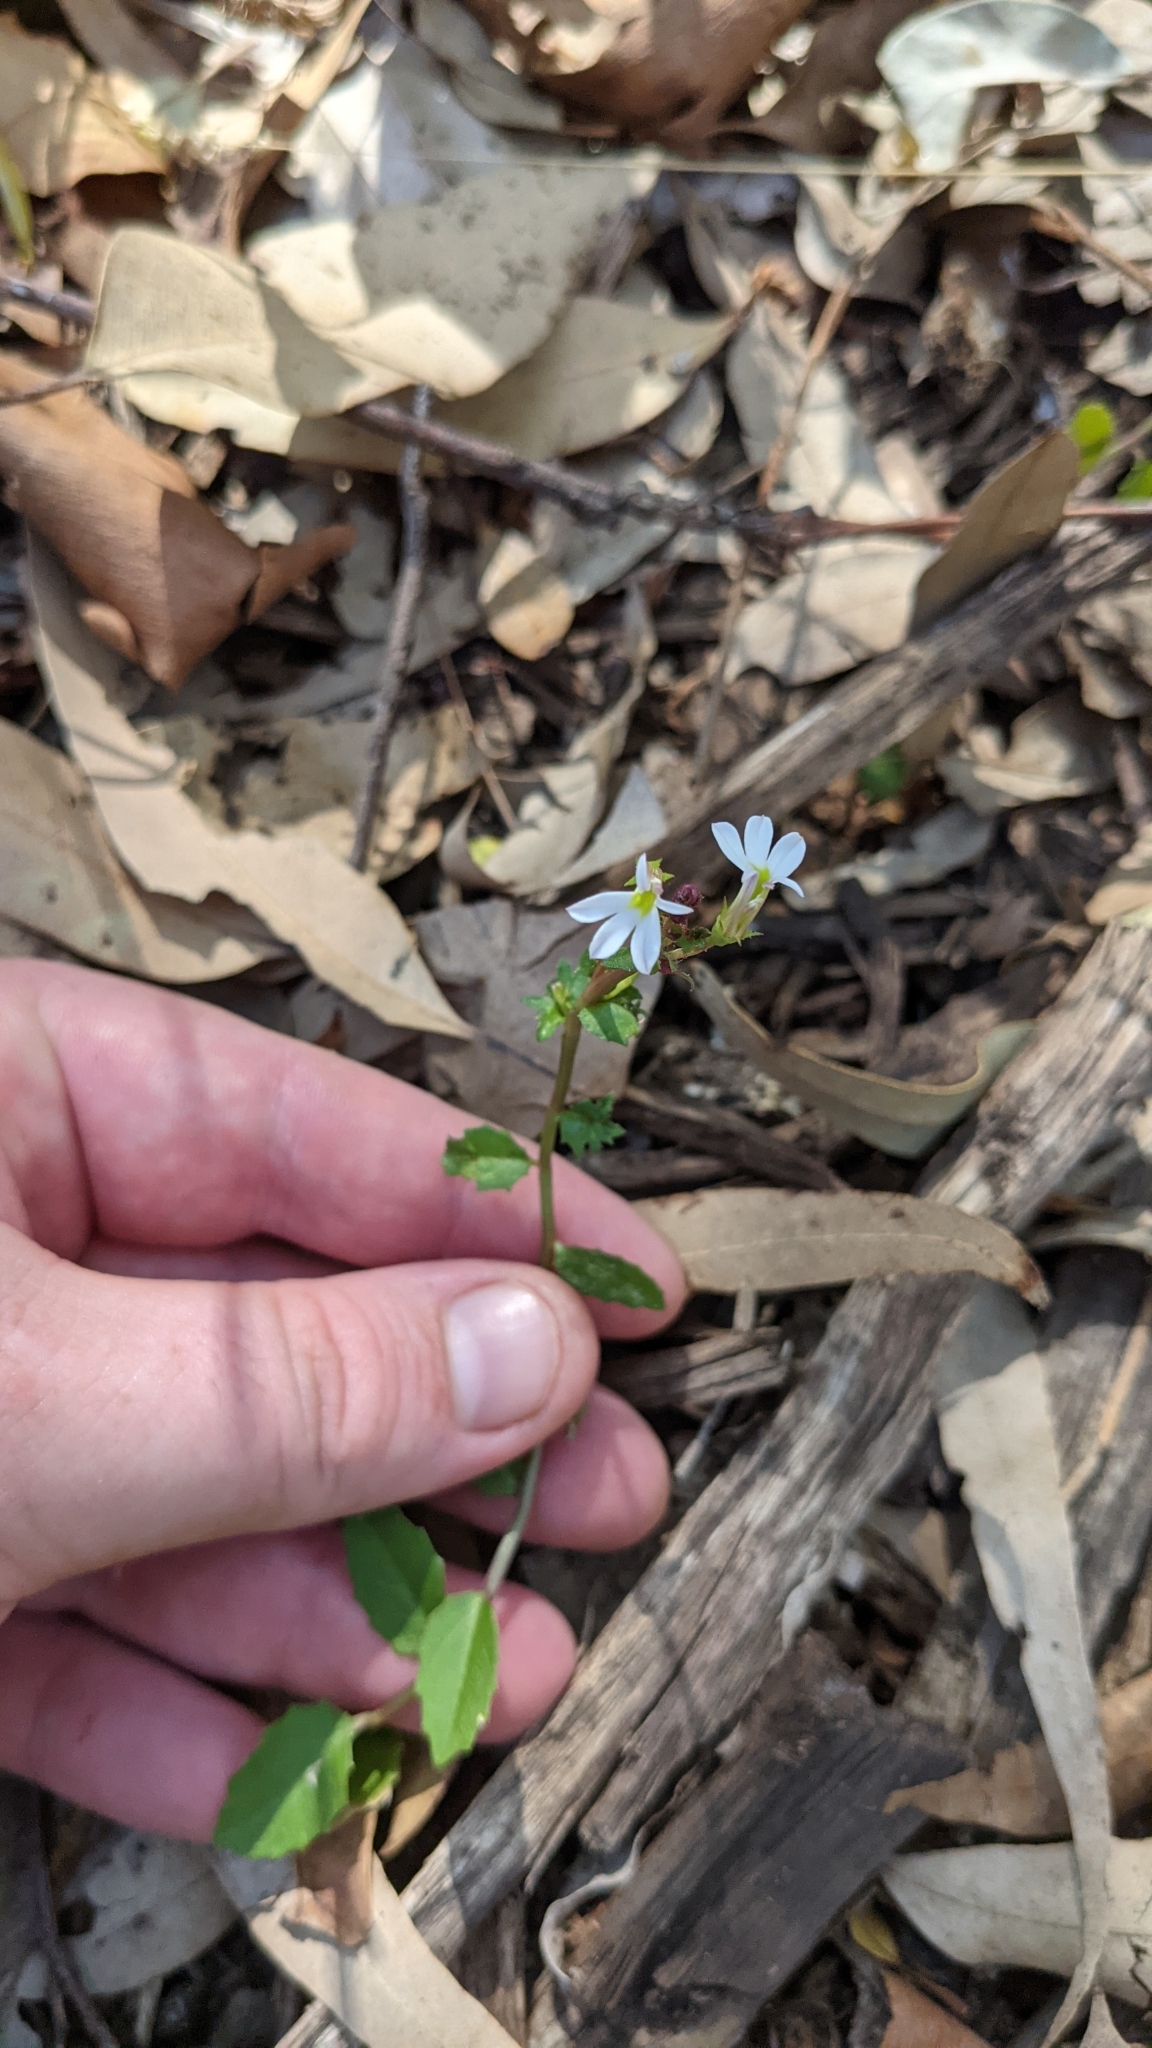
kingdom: Plantae
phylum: Tracheophyta
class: Magnoliopsida
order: Asterales
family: Campanulaceae
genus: Lobelia
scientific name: Lobelia purpurascens
